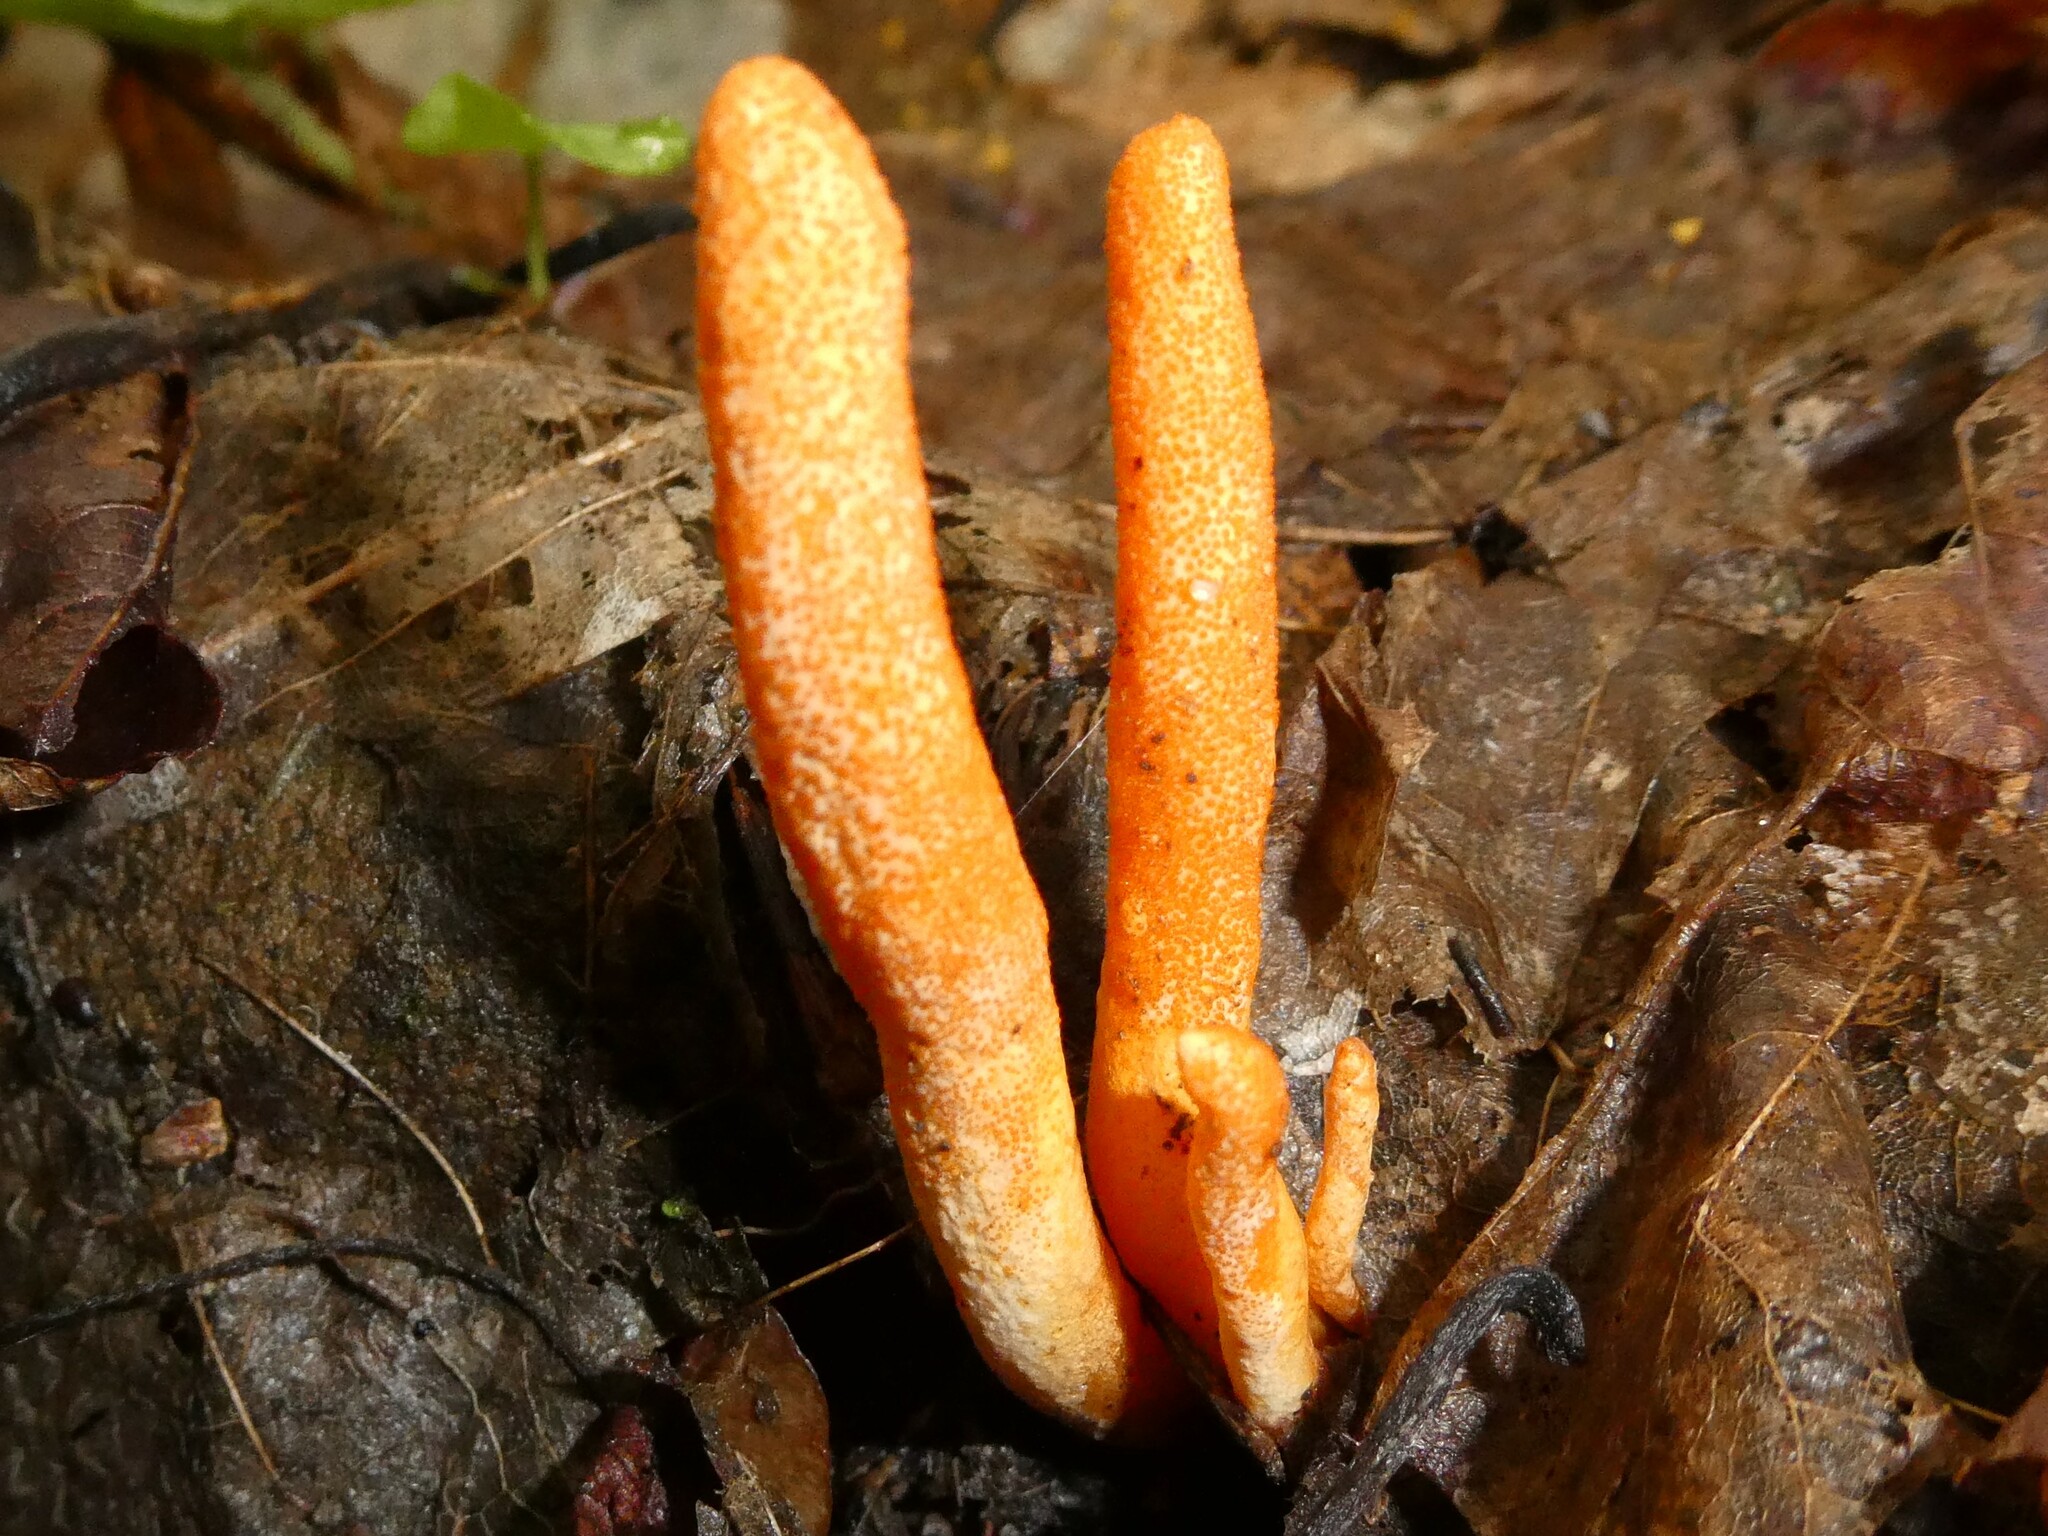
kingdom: Fungi
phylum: Ascomycota
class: Sordariomycetes
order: Hypocreales
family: Cordycipitaceae
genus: Cordyceps
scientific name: Cordyceps militaris
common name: Scarlet caterpillar fungus
